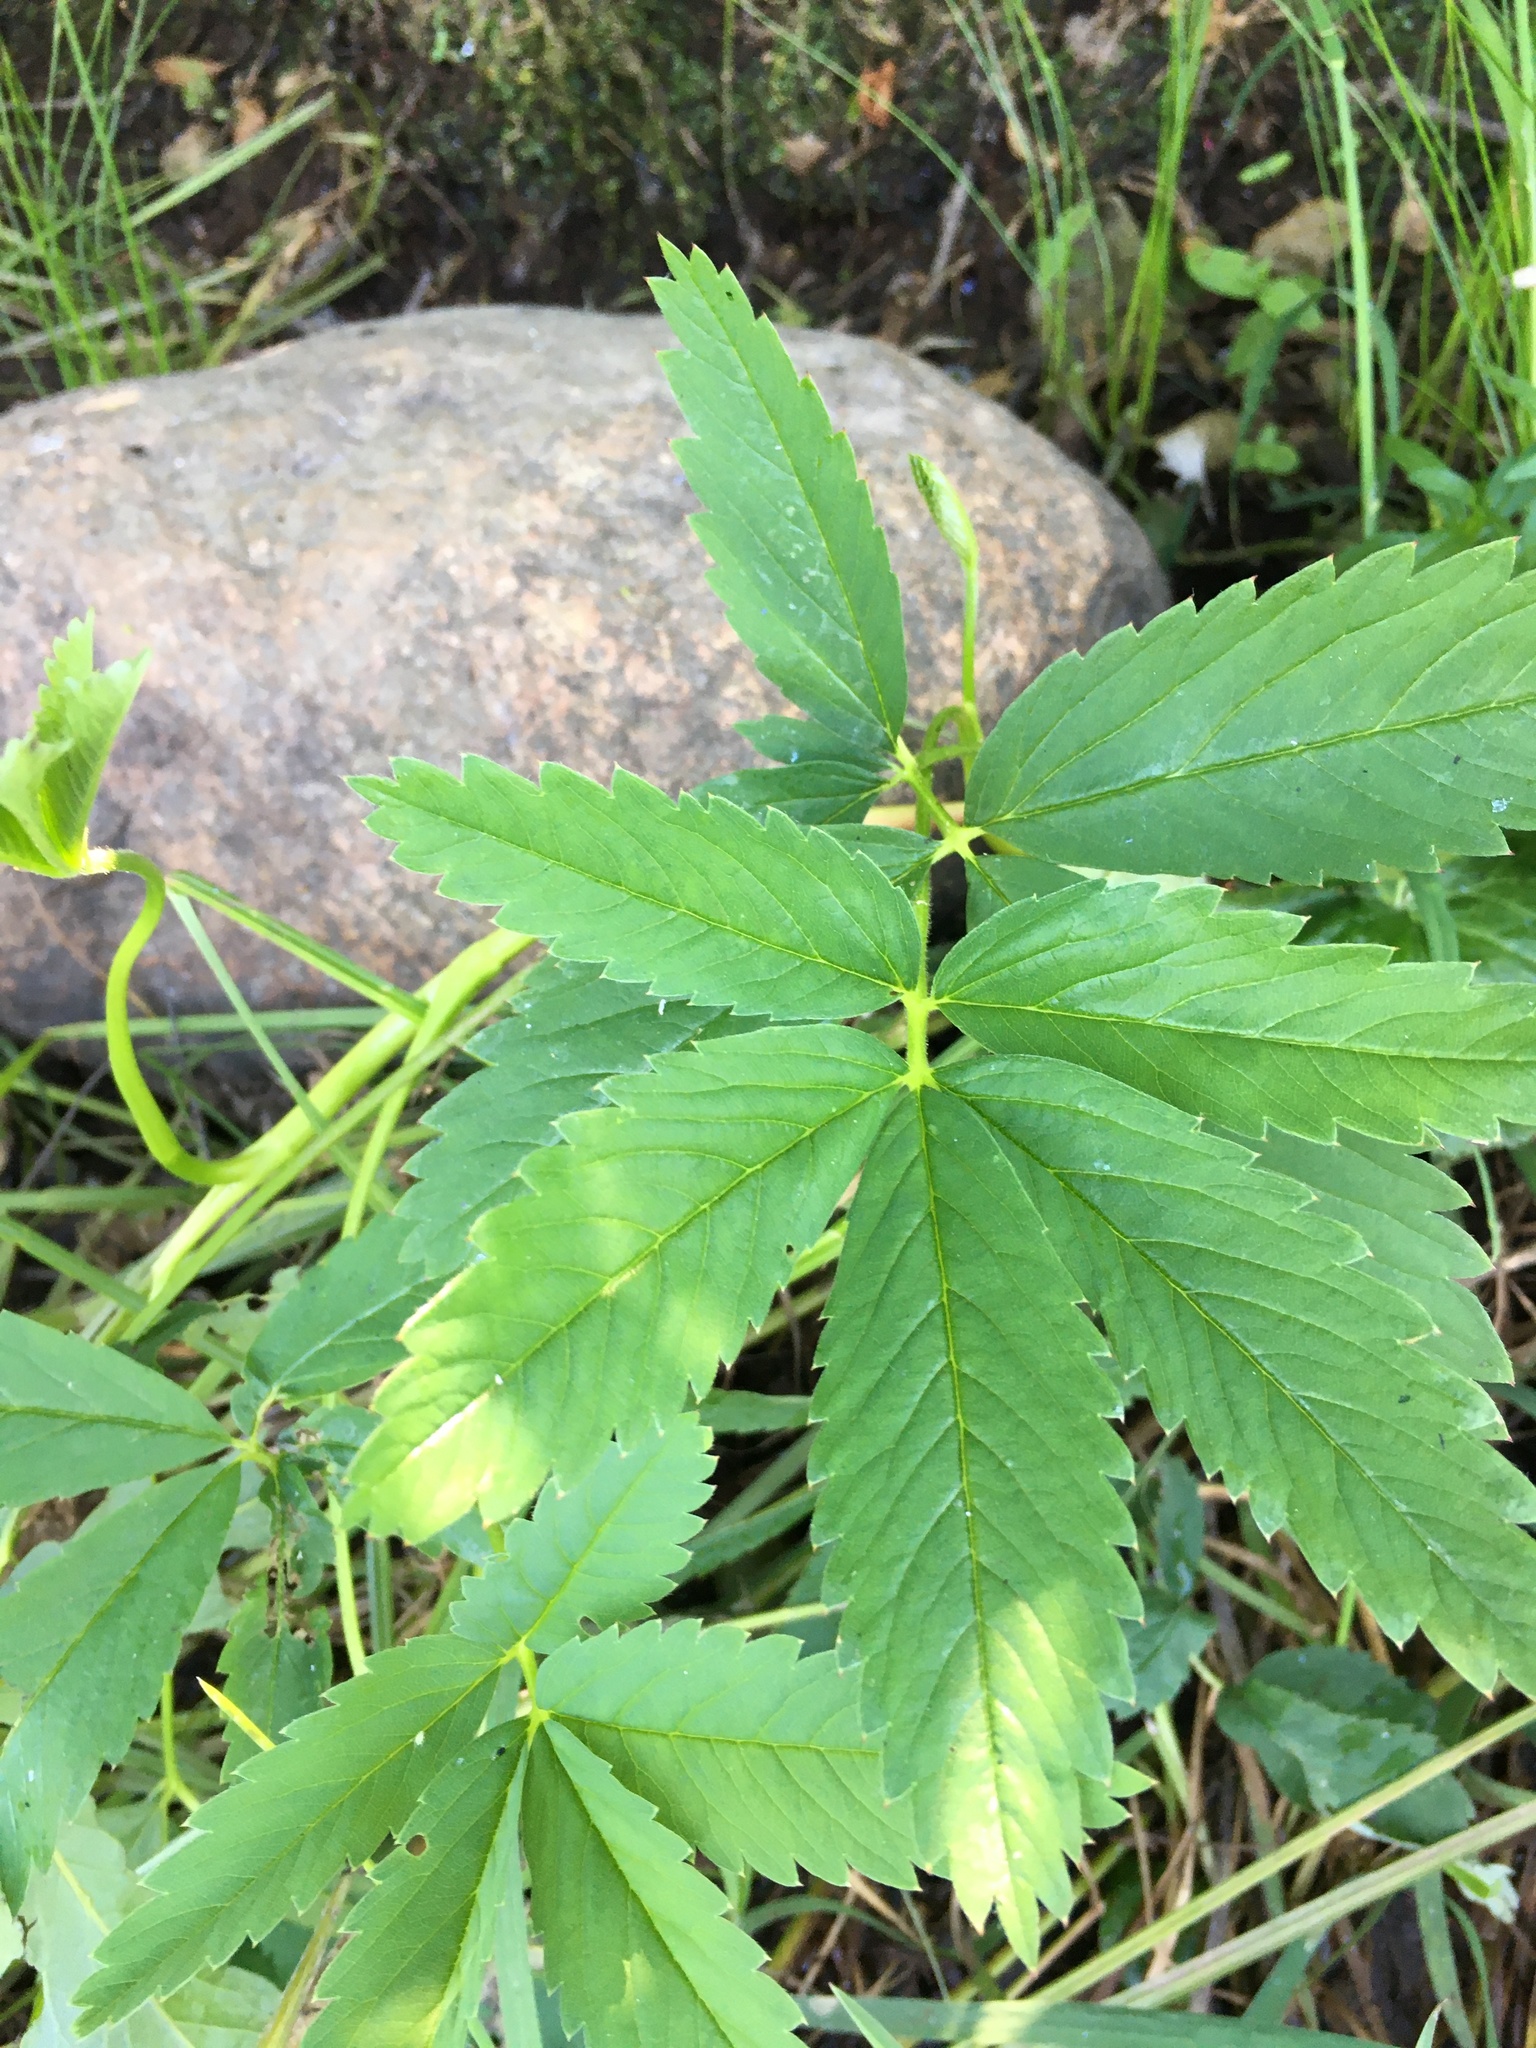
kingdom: Plantae
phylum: Tracheophyta
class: Magnoliopsida
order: Rosales
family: Rosaceae
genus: Comarum
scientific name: Comarum palustre
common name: Marsh cinquefoil
